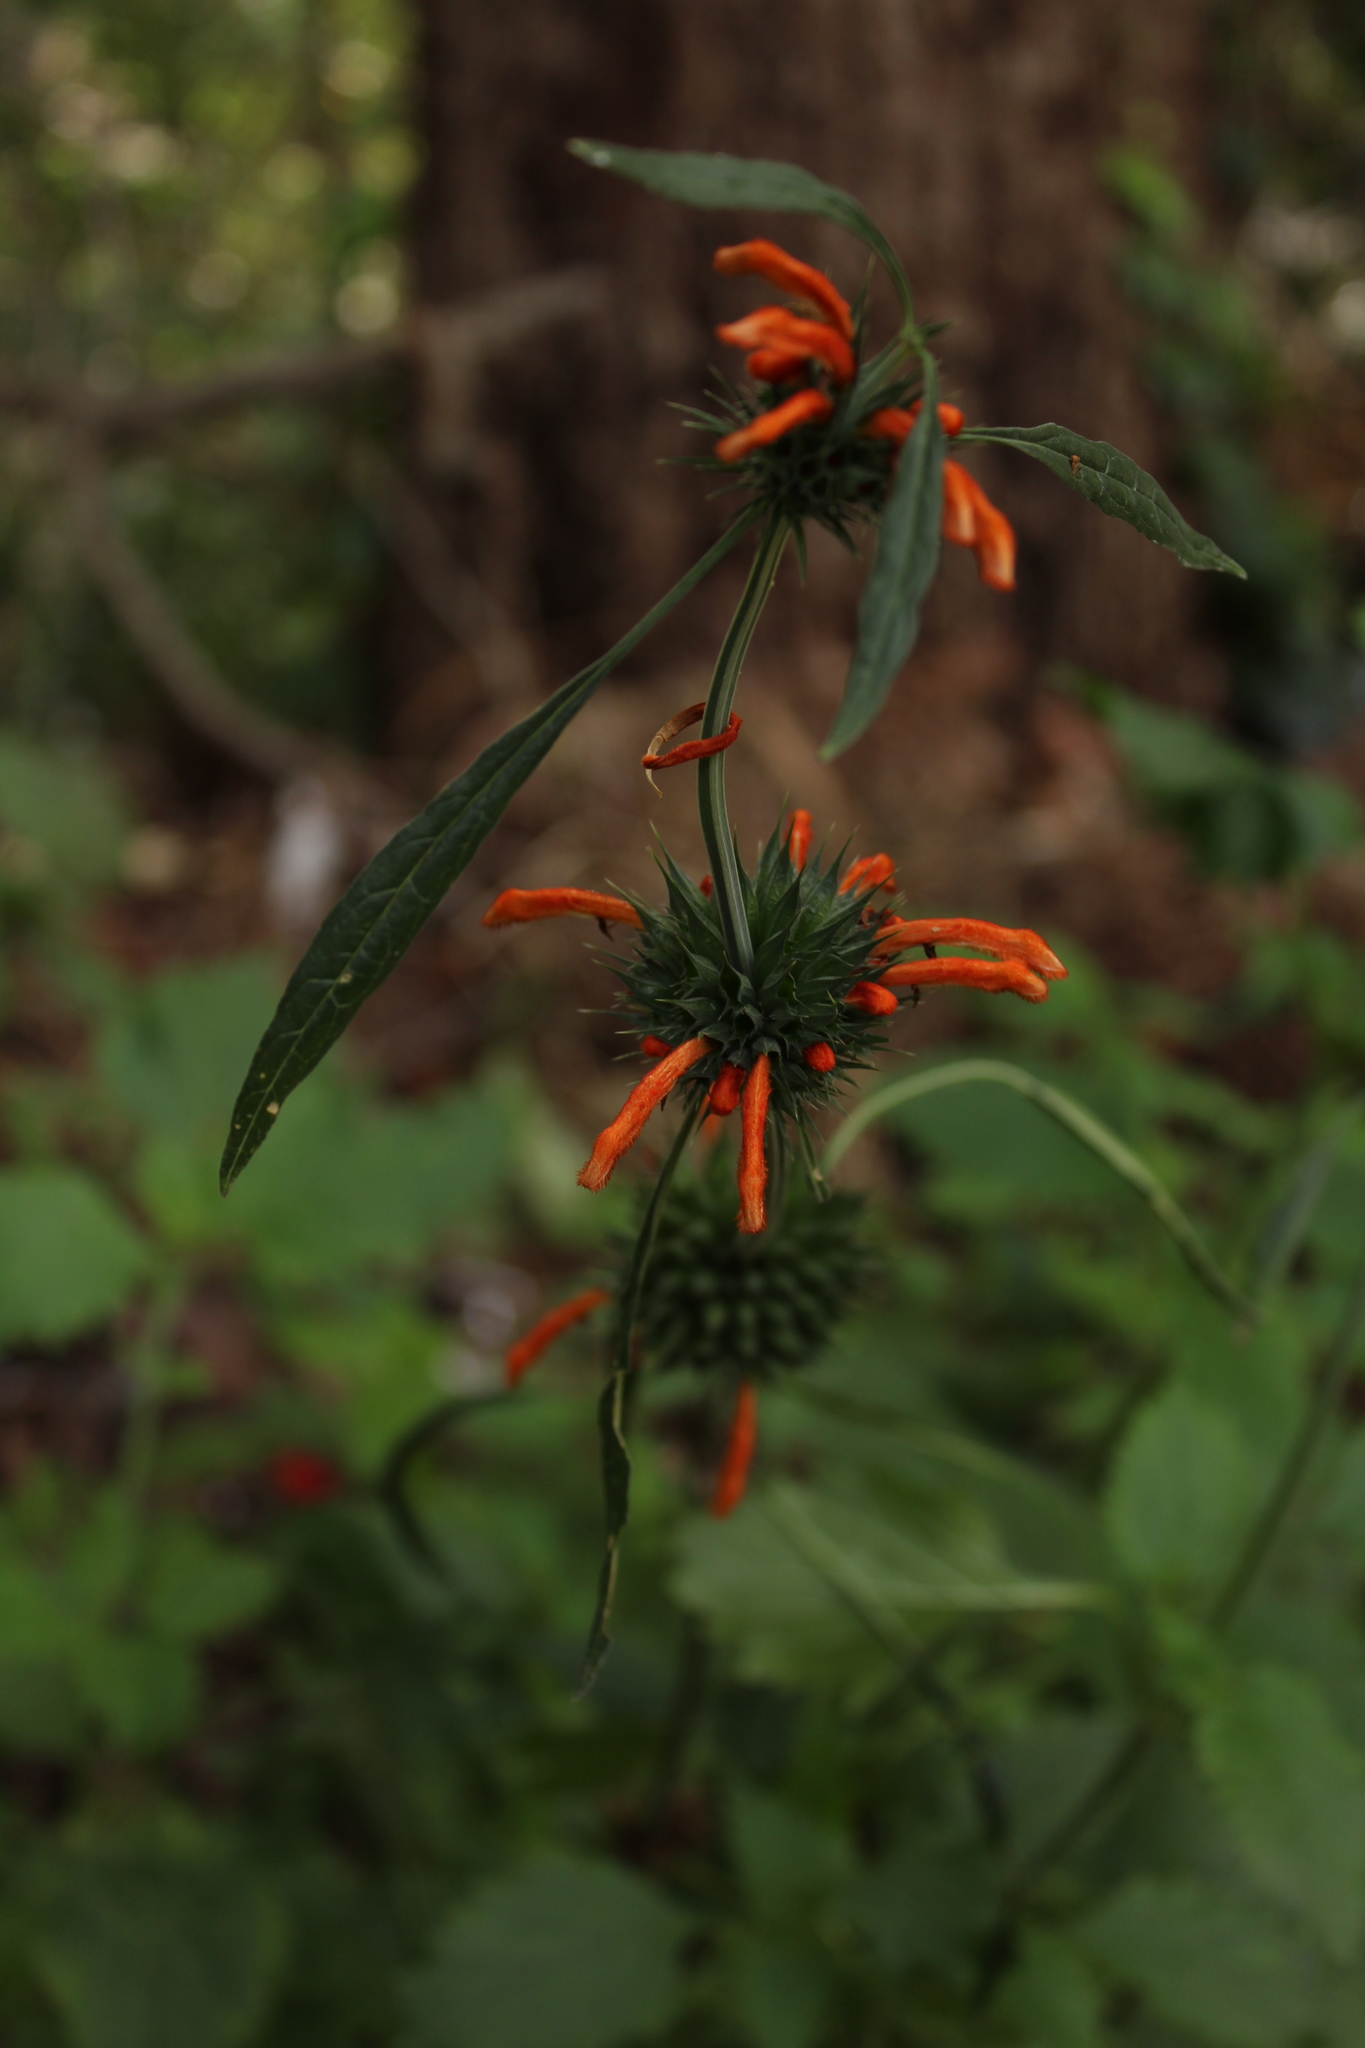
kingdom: Plantae
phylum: Tracheophyta
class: Magnoliopsida
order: Lamiales
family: Lamiaceae
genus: Leonotis
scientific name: Leonotis nepetifolia
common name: Christmas candlestick
